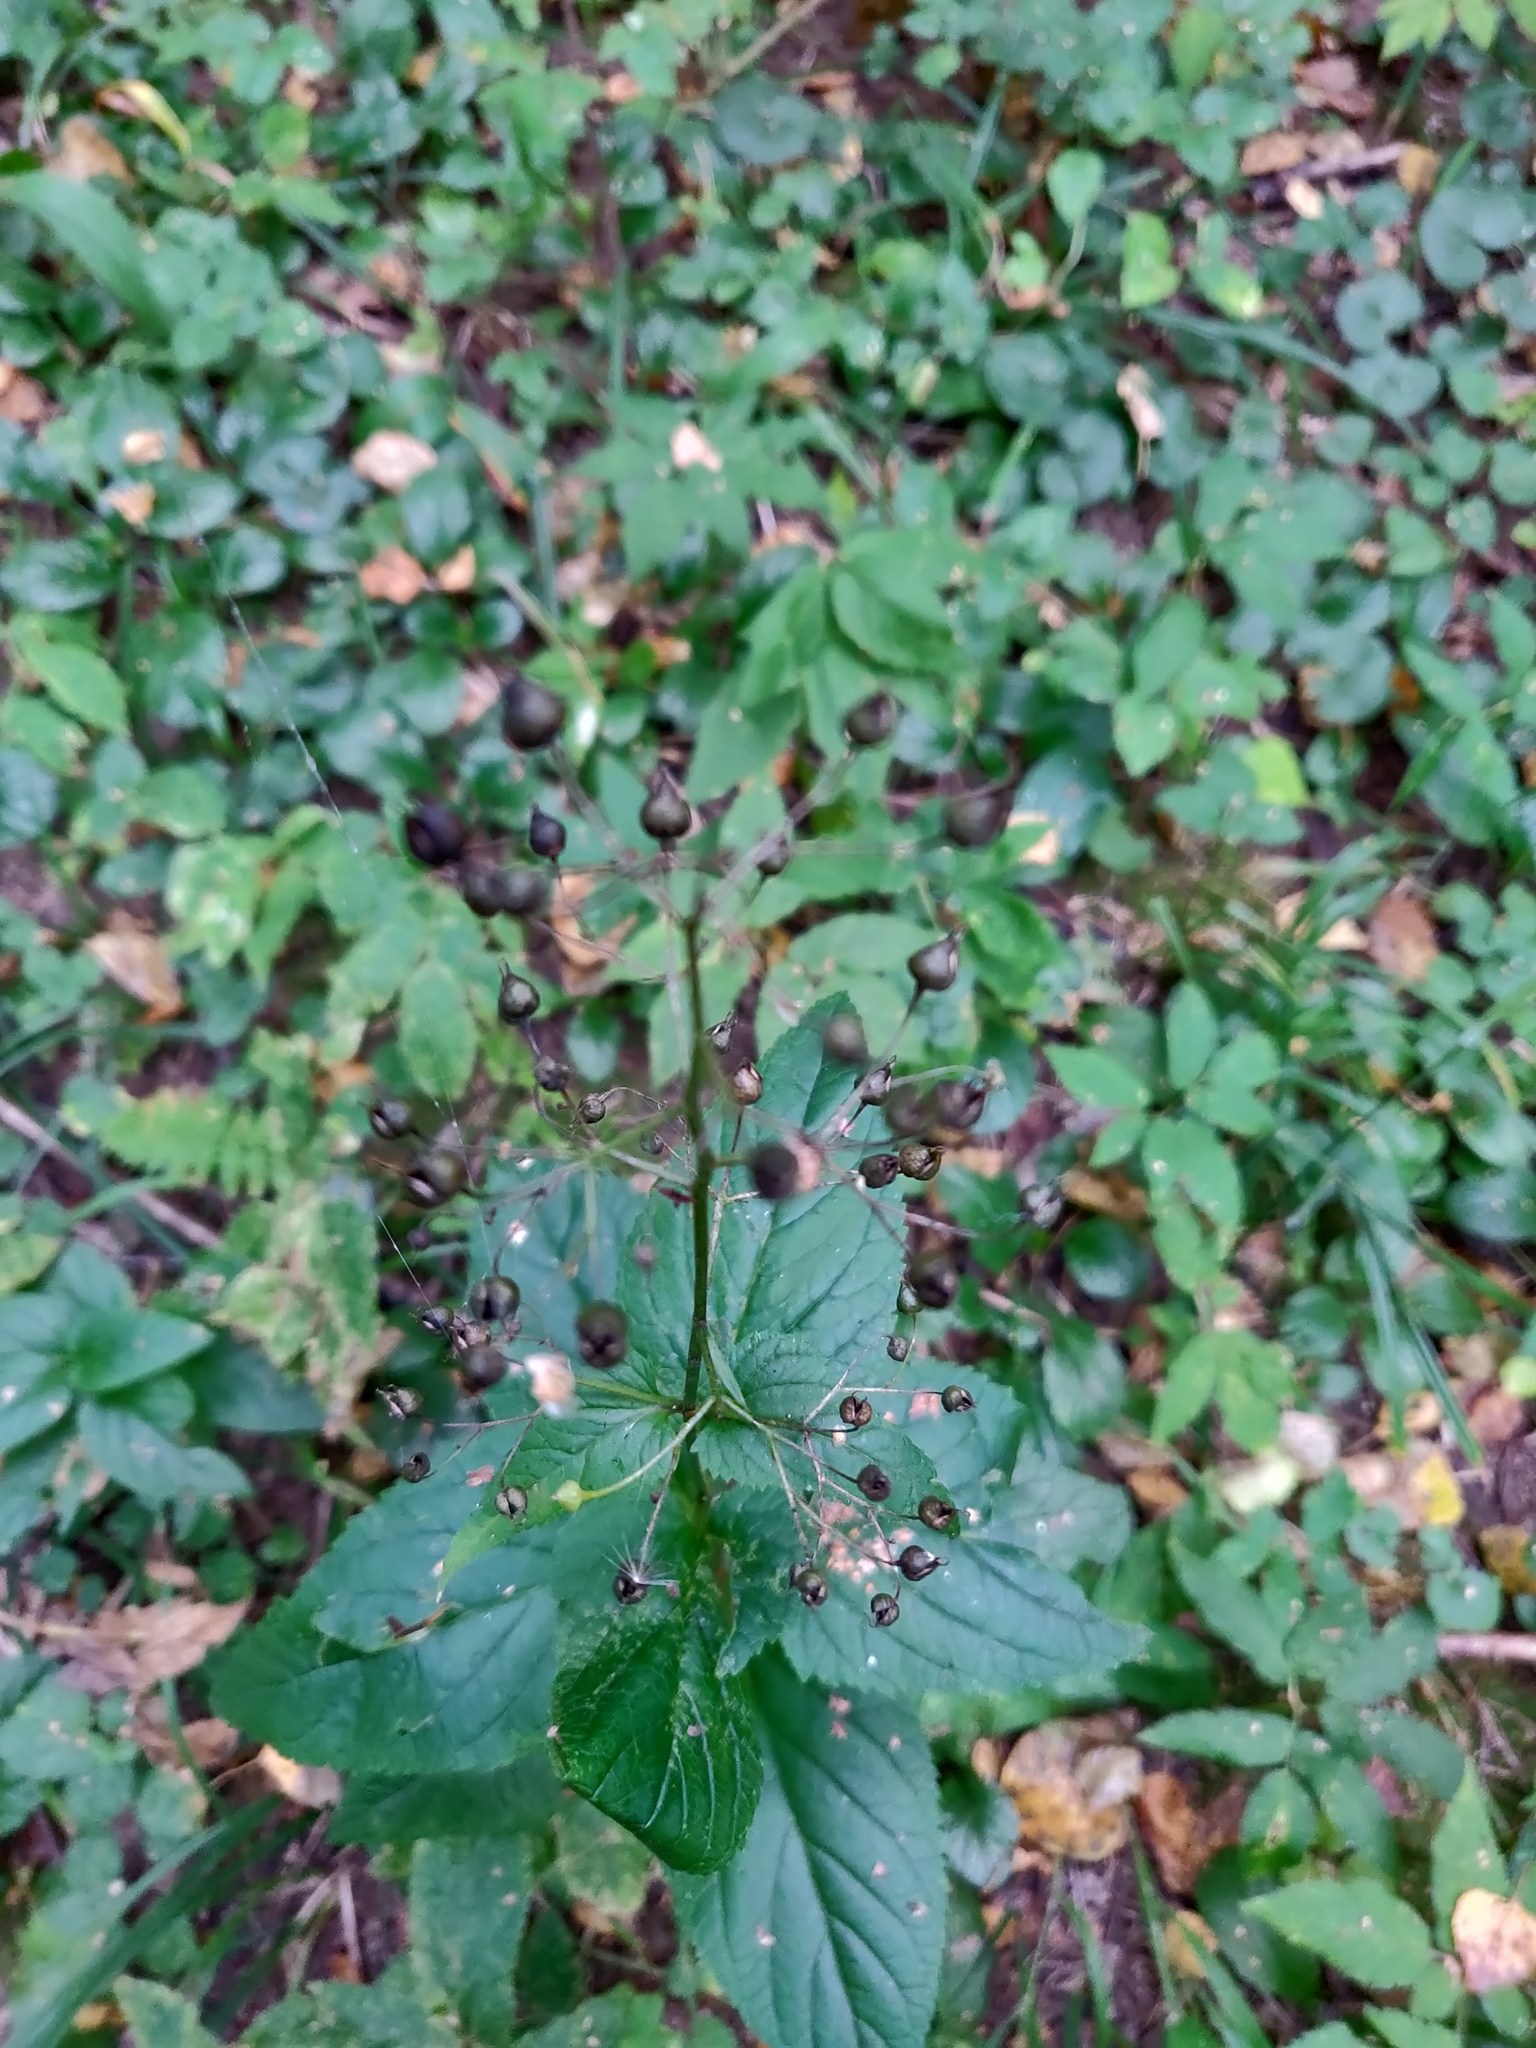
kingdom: Plantae
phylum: Tracheophyta
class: Magnoliopsida
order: Lamiales
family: Scrophulariaceae
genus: Scrophularia
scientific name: Scrophularia nodosa
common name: Common figwort
